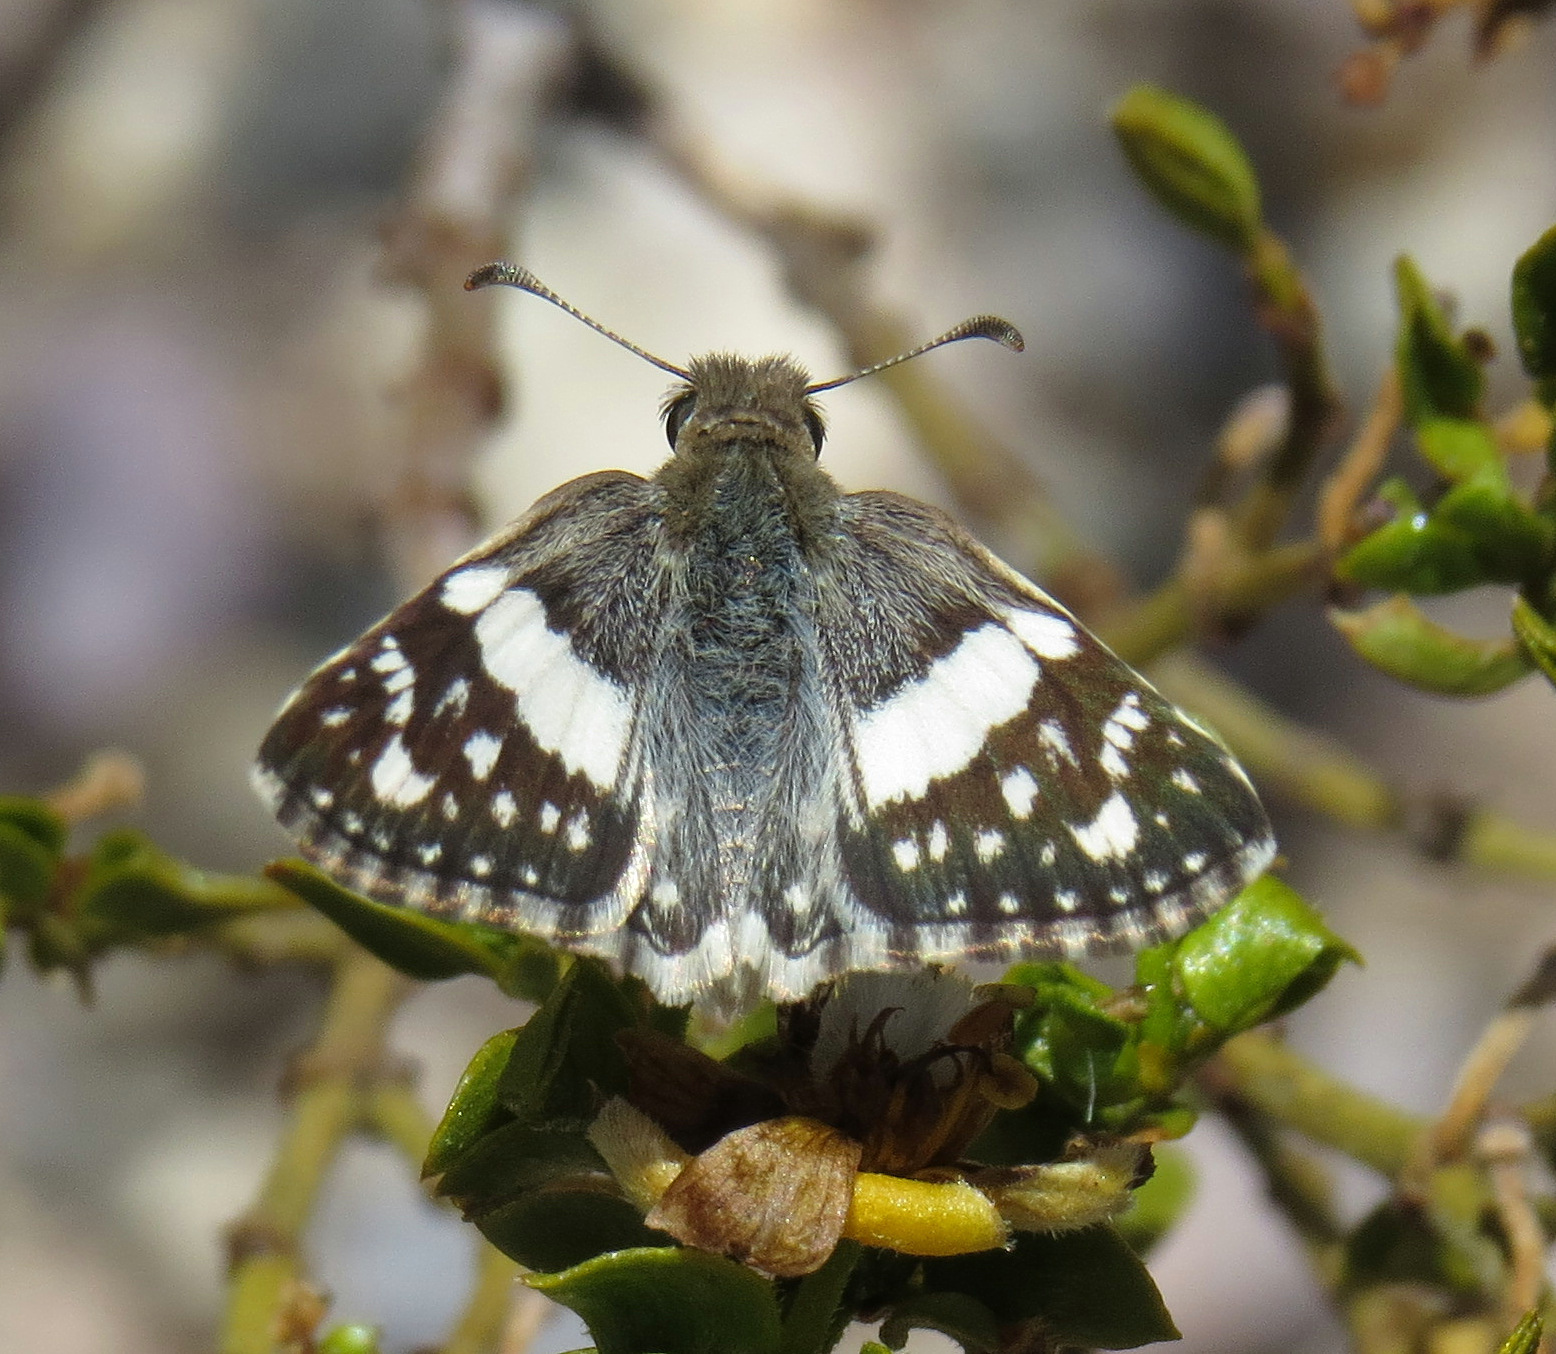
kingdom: Animalia
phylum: Arthropoda
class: Insecta
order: Lepidoptera
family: Hesperiidae
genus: Heliopyrgus
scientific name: Heliopyrgus domicella
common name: Erichson's white skipper
